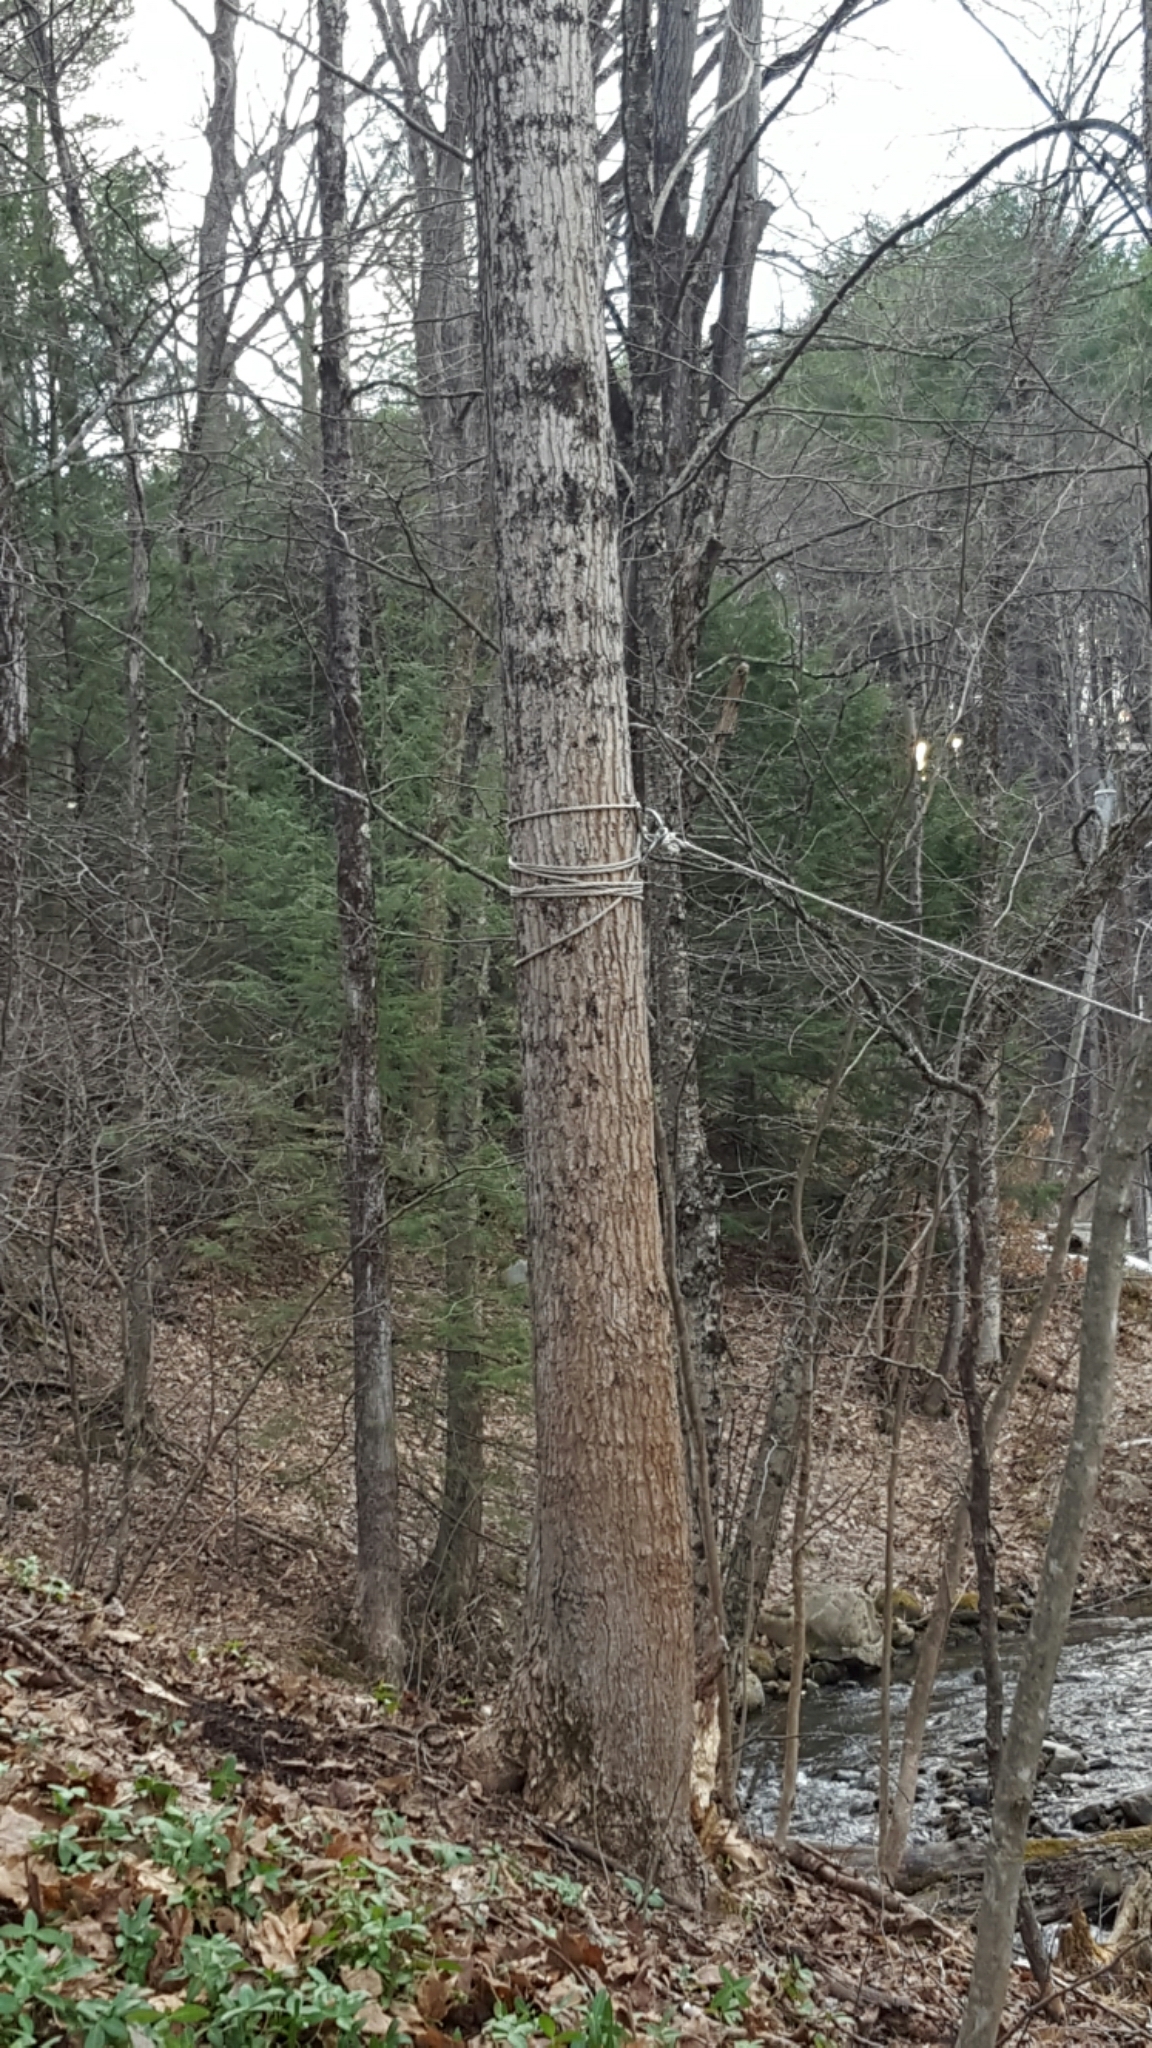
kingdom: Plantae
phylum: Tracheophyta
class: Magnoliopsida
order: Sapindales
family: Sapindaceae
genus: Acer
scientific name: Acer saccharum
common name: Sugar maple
